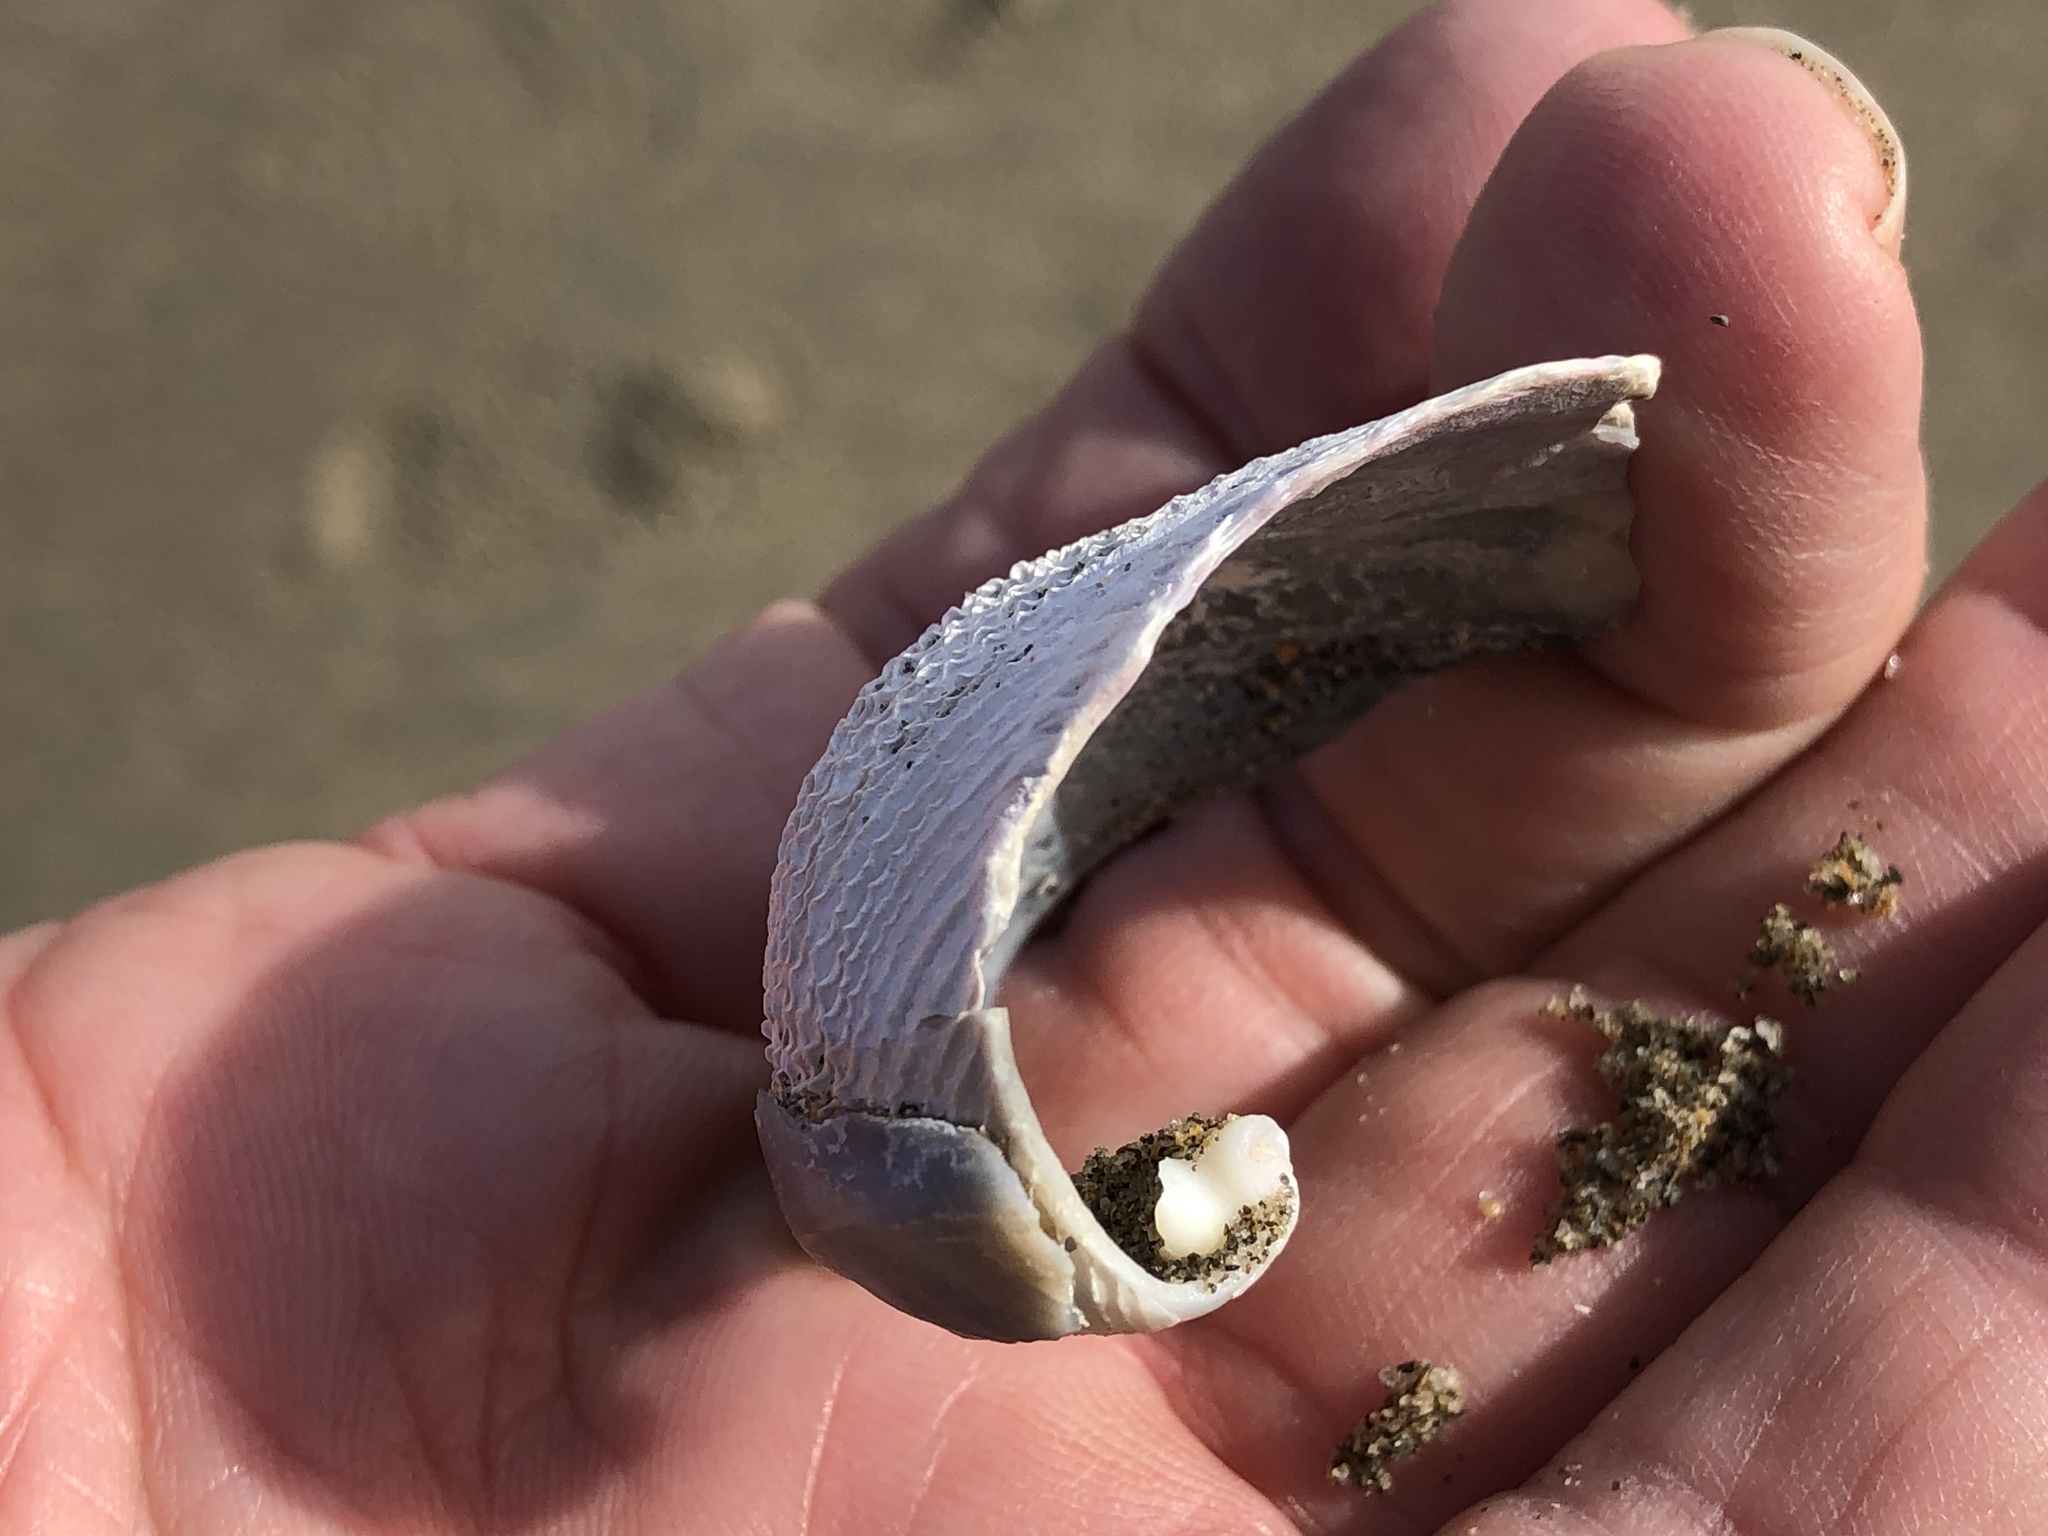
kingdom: Animalia
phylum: Mollusca
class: Bivalvia
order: Myida
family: Pholadidae
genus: Zirfaea
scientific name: Zirfaea pilsbryi
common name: Rough piddock
